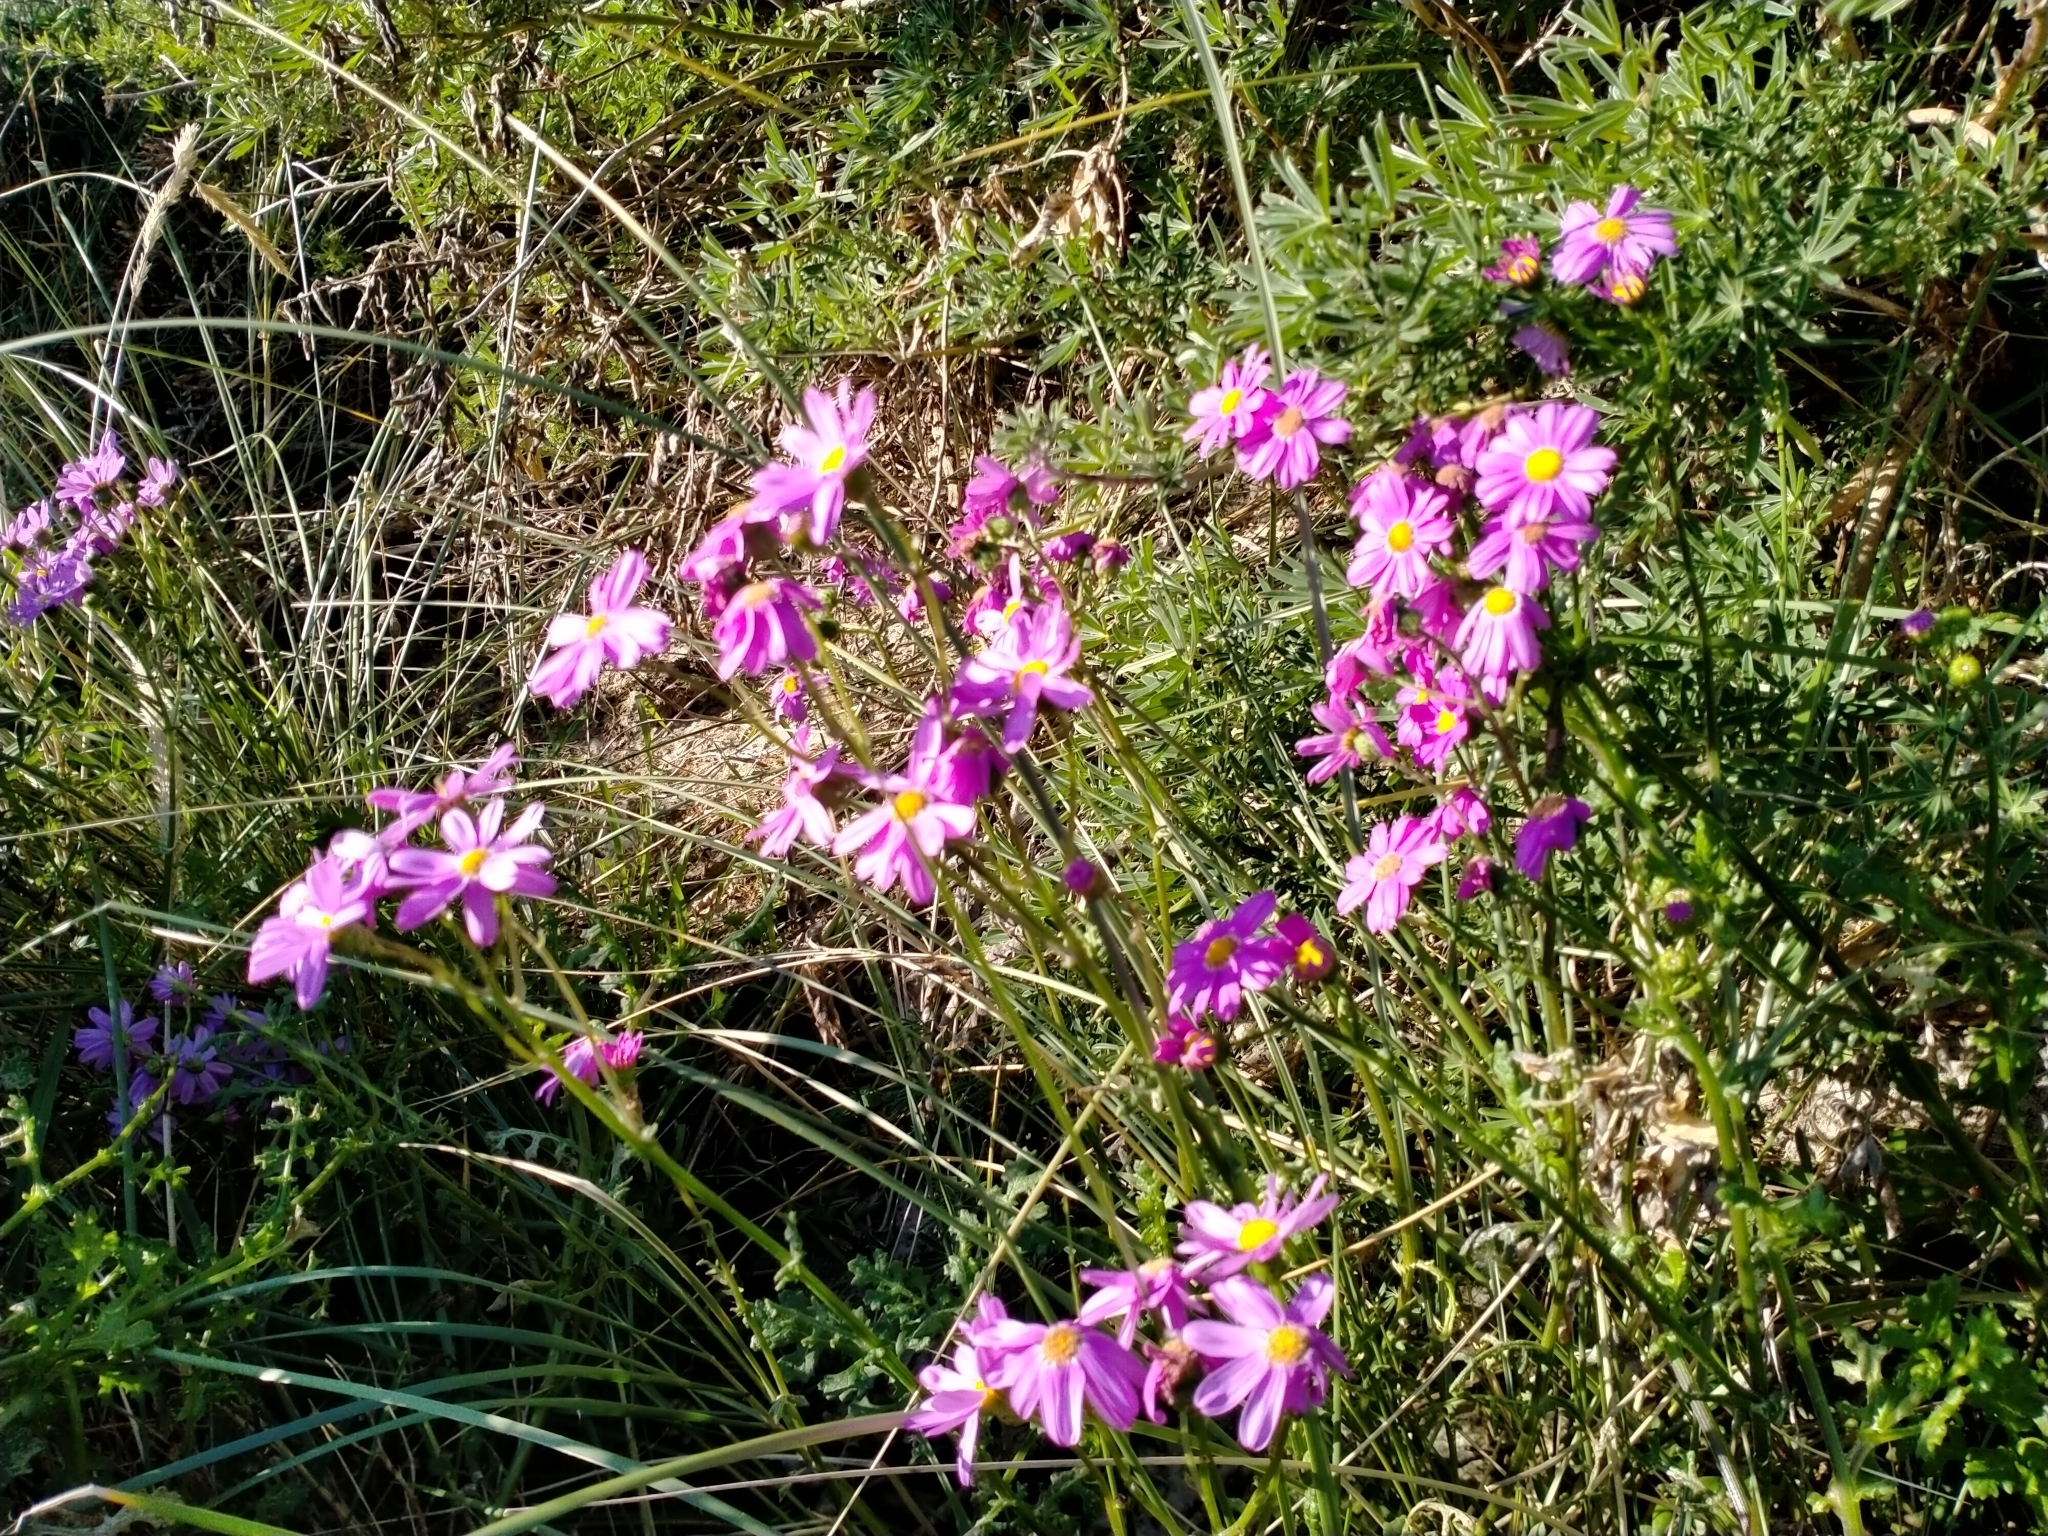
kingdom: Plantae
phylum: Tracheophyta
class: Magnoliopsida
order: Asterales
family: Asteraceae
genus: Senecio
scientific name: Senecio elegans
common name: Purple groundsel
